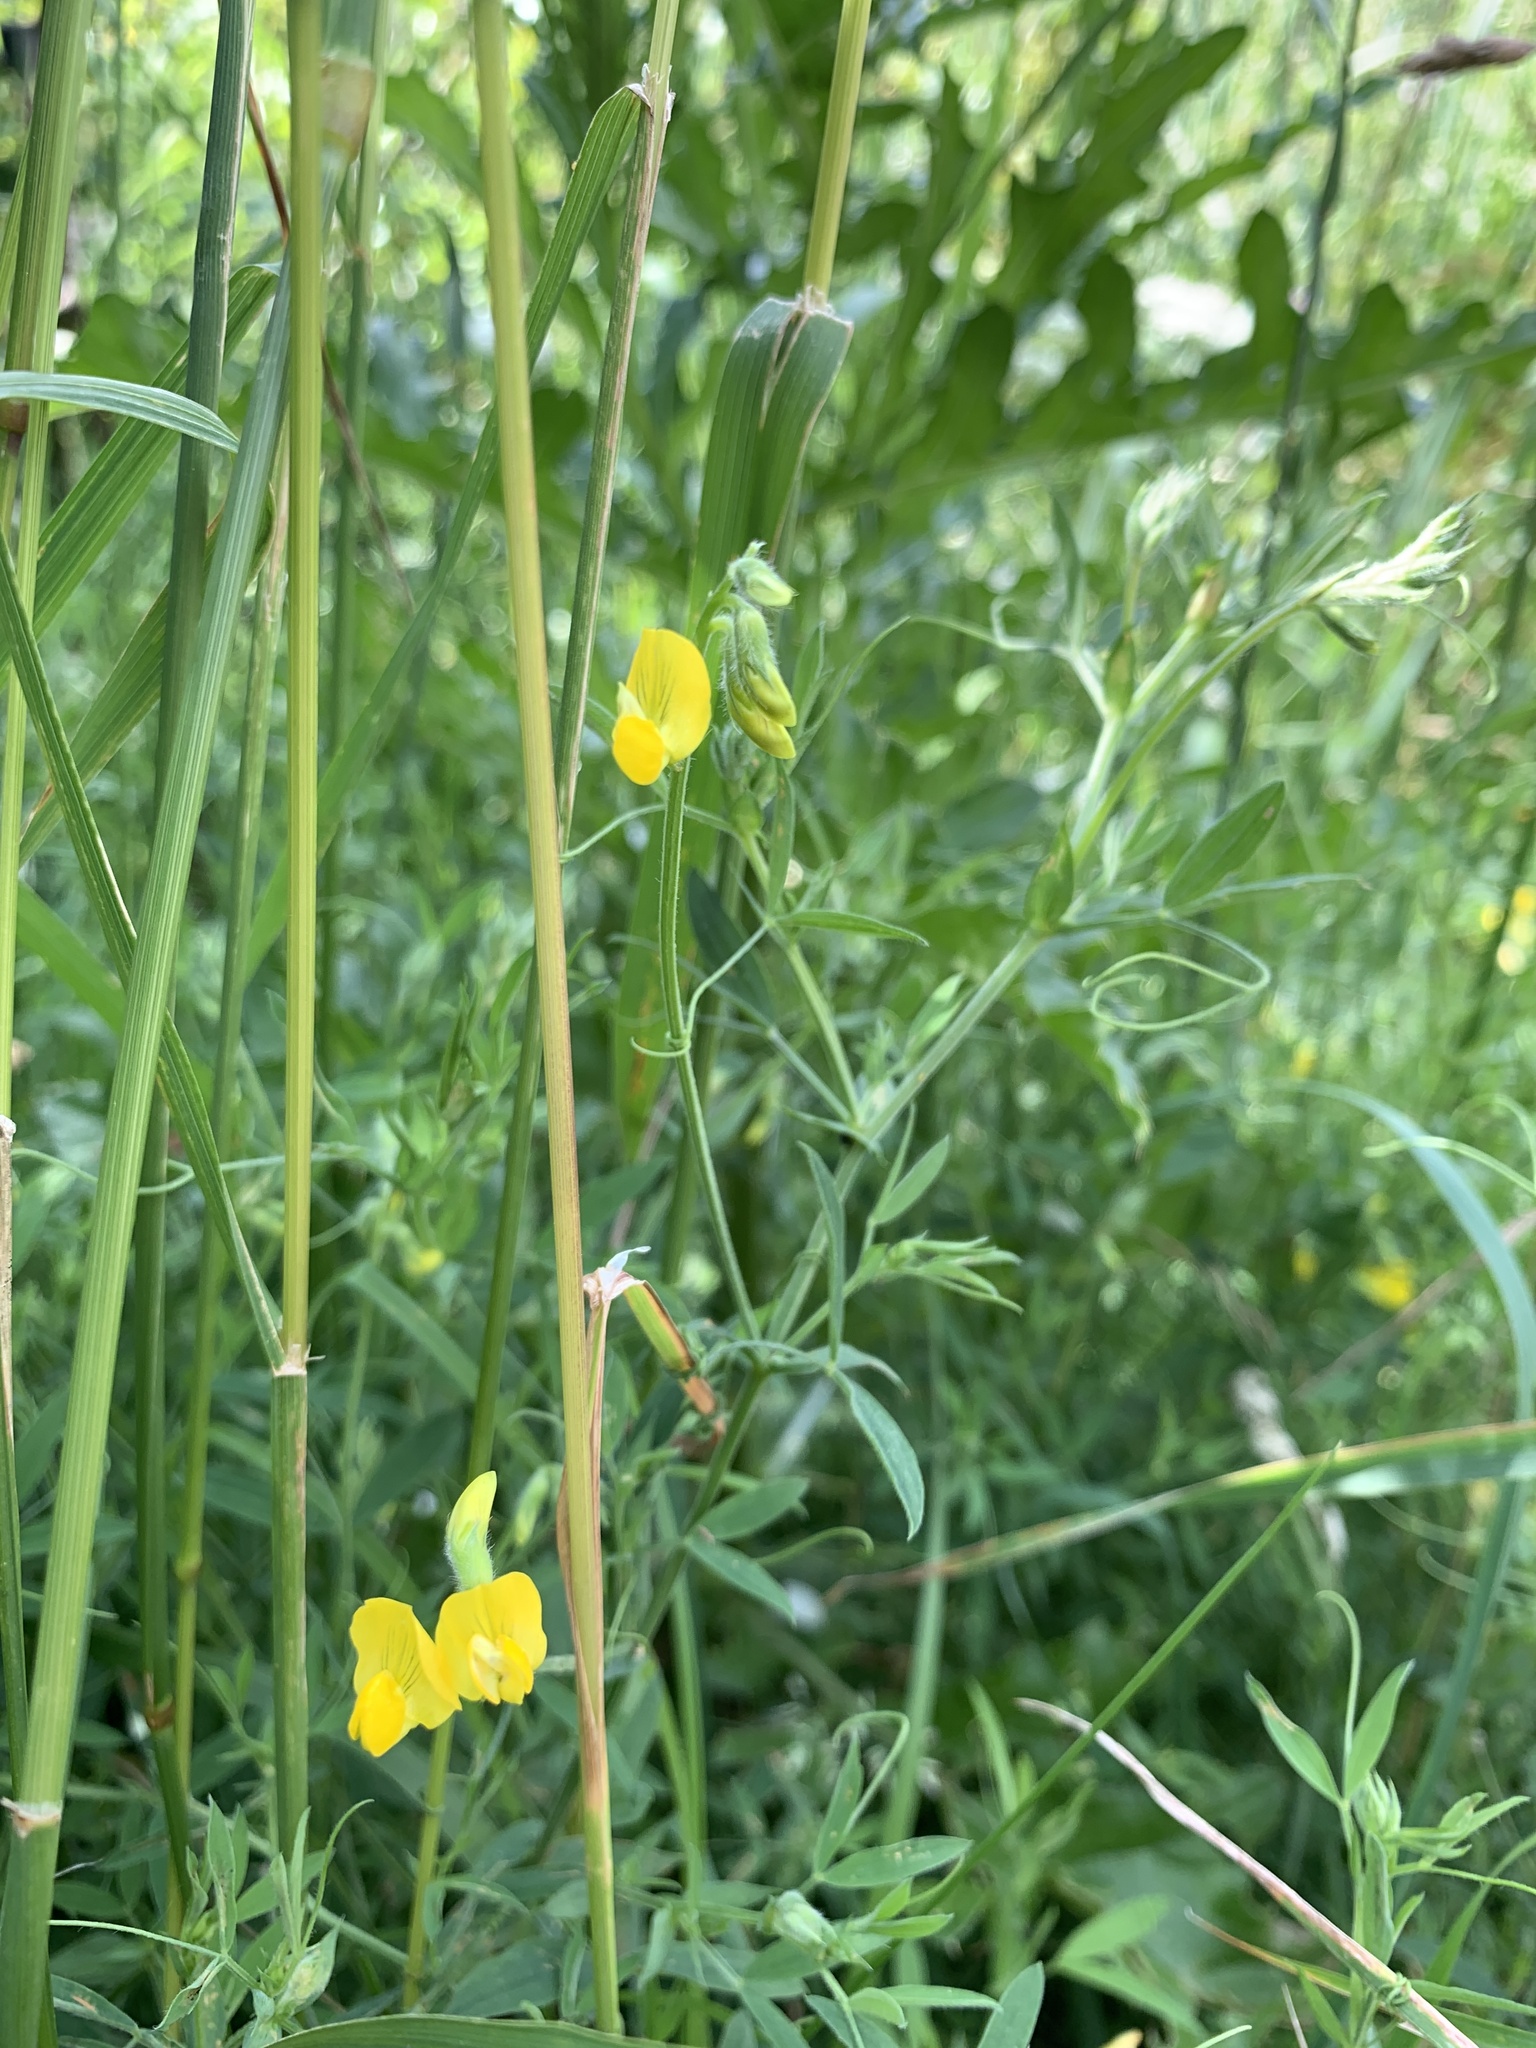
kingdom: Plantae
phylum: Tracheophyta
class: Magnoliopsida
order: Fabales
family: Fabaceae
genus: Lathyrus
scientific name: Lathyrus pratensis
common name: Meadow vetchling
